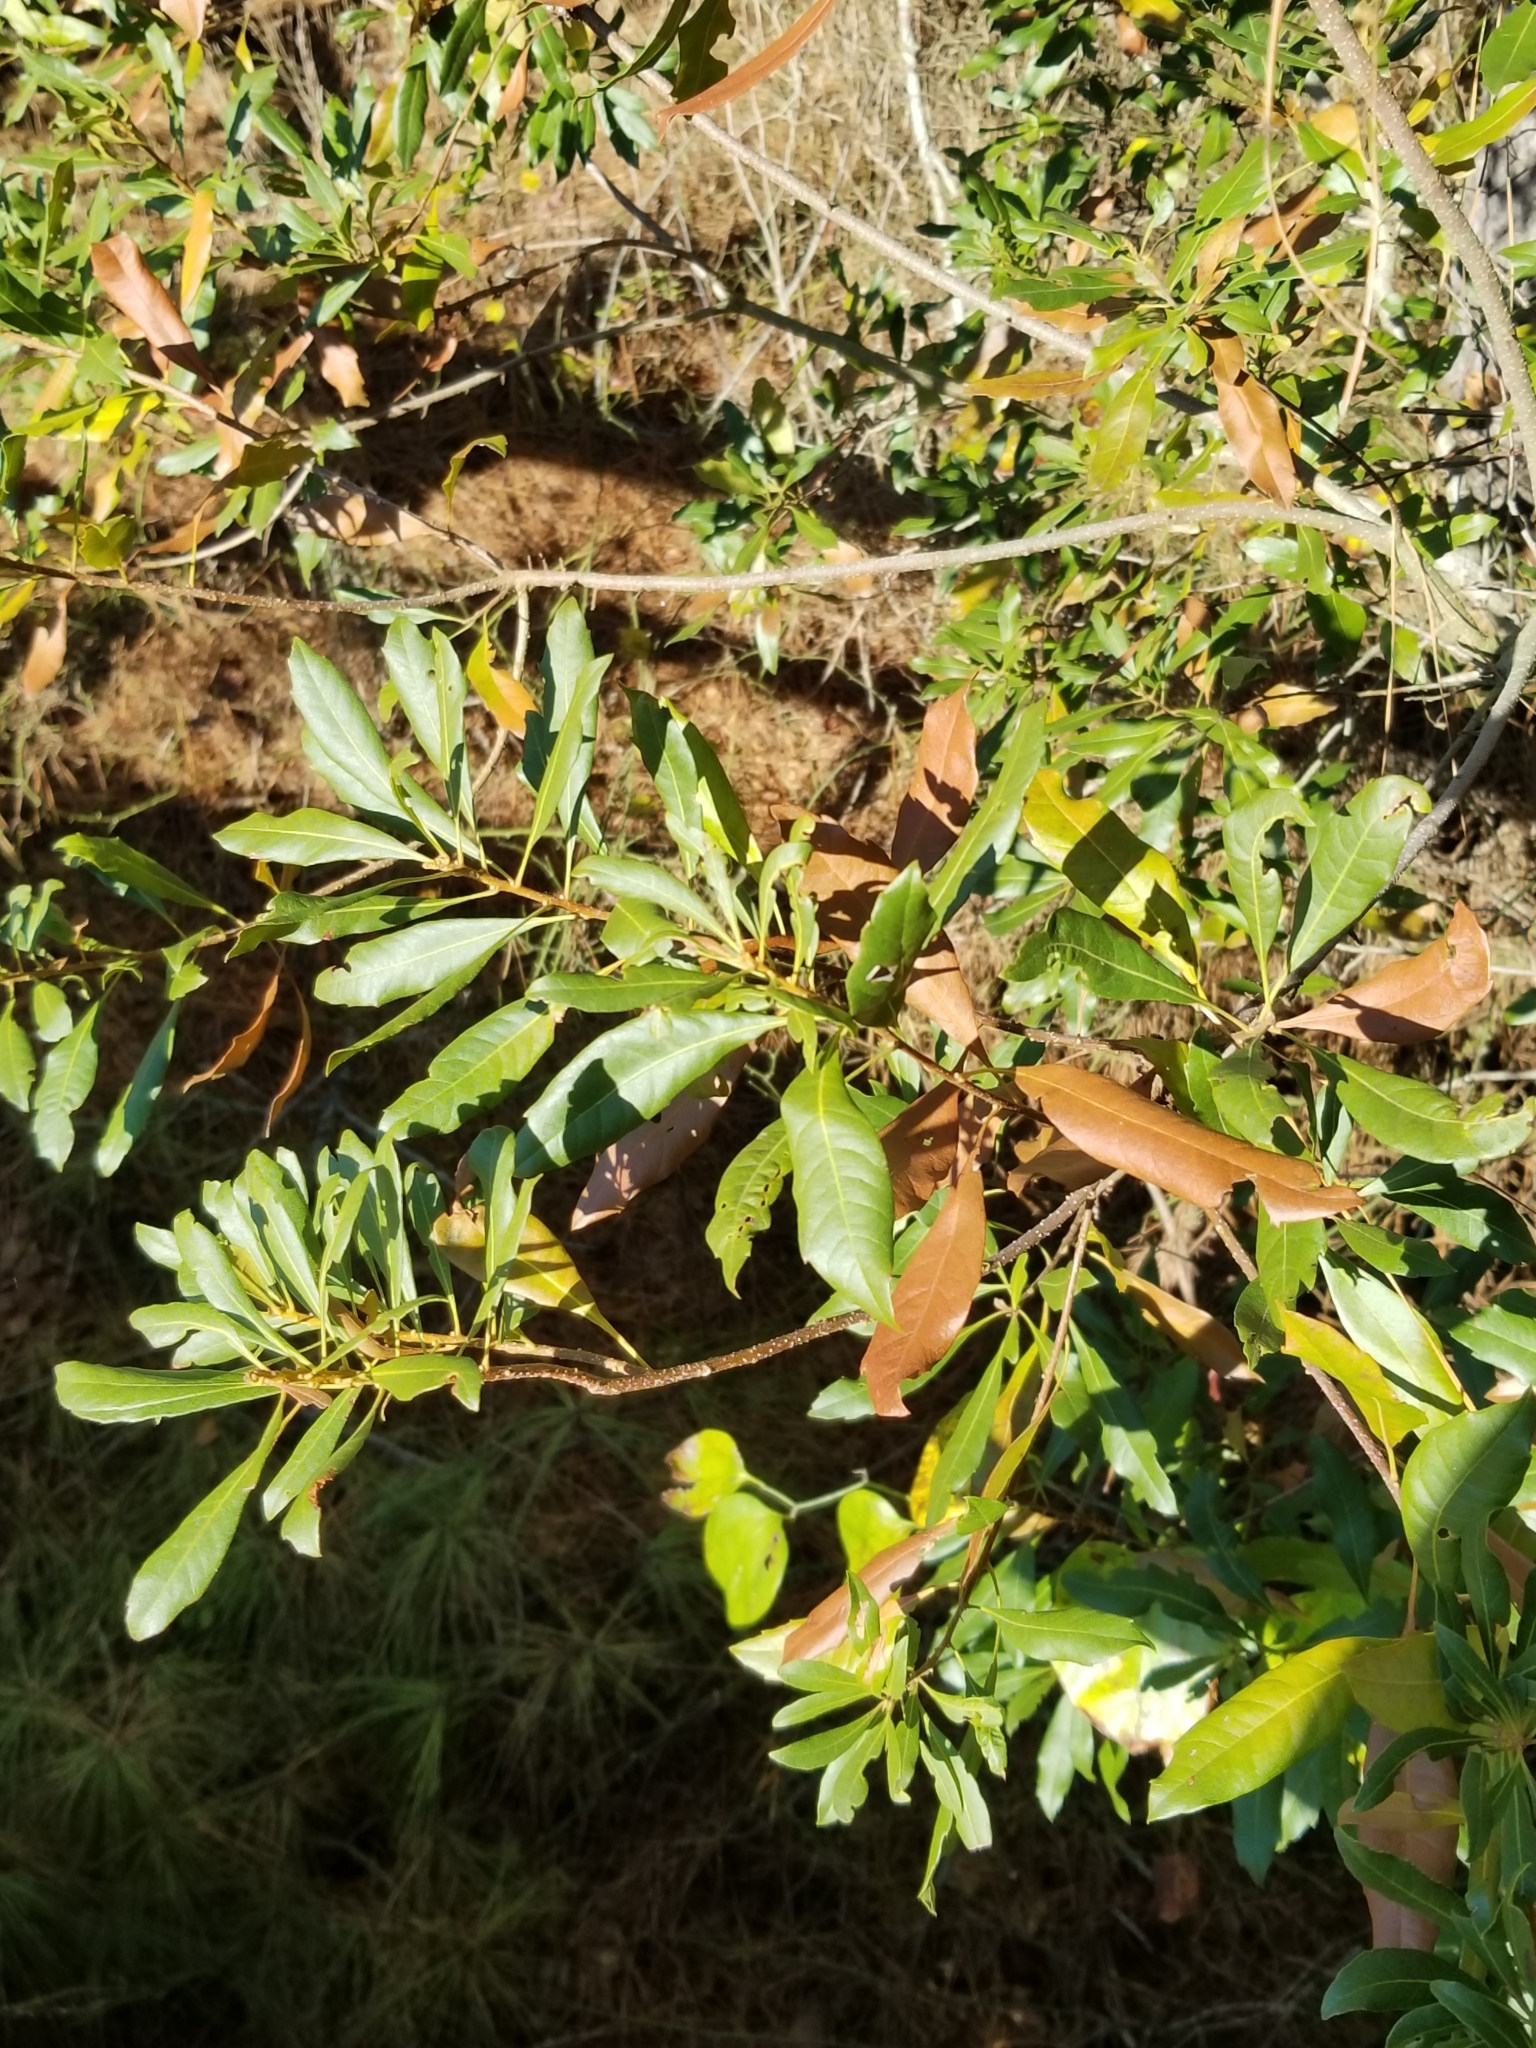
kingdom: Plantae
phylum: Tracheophyta
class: Magnoliopsida
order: Fagales
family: Myricaceae
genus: Morella
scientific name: Morella cerifera
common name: Wax myrtle
